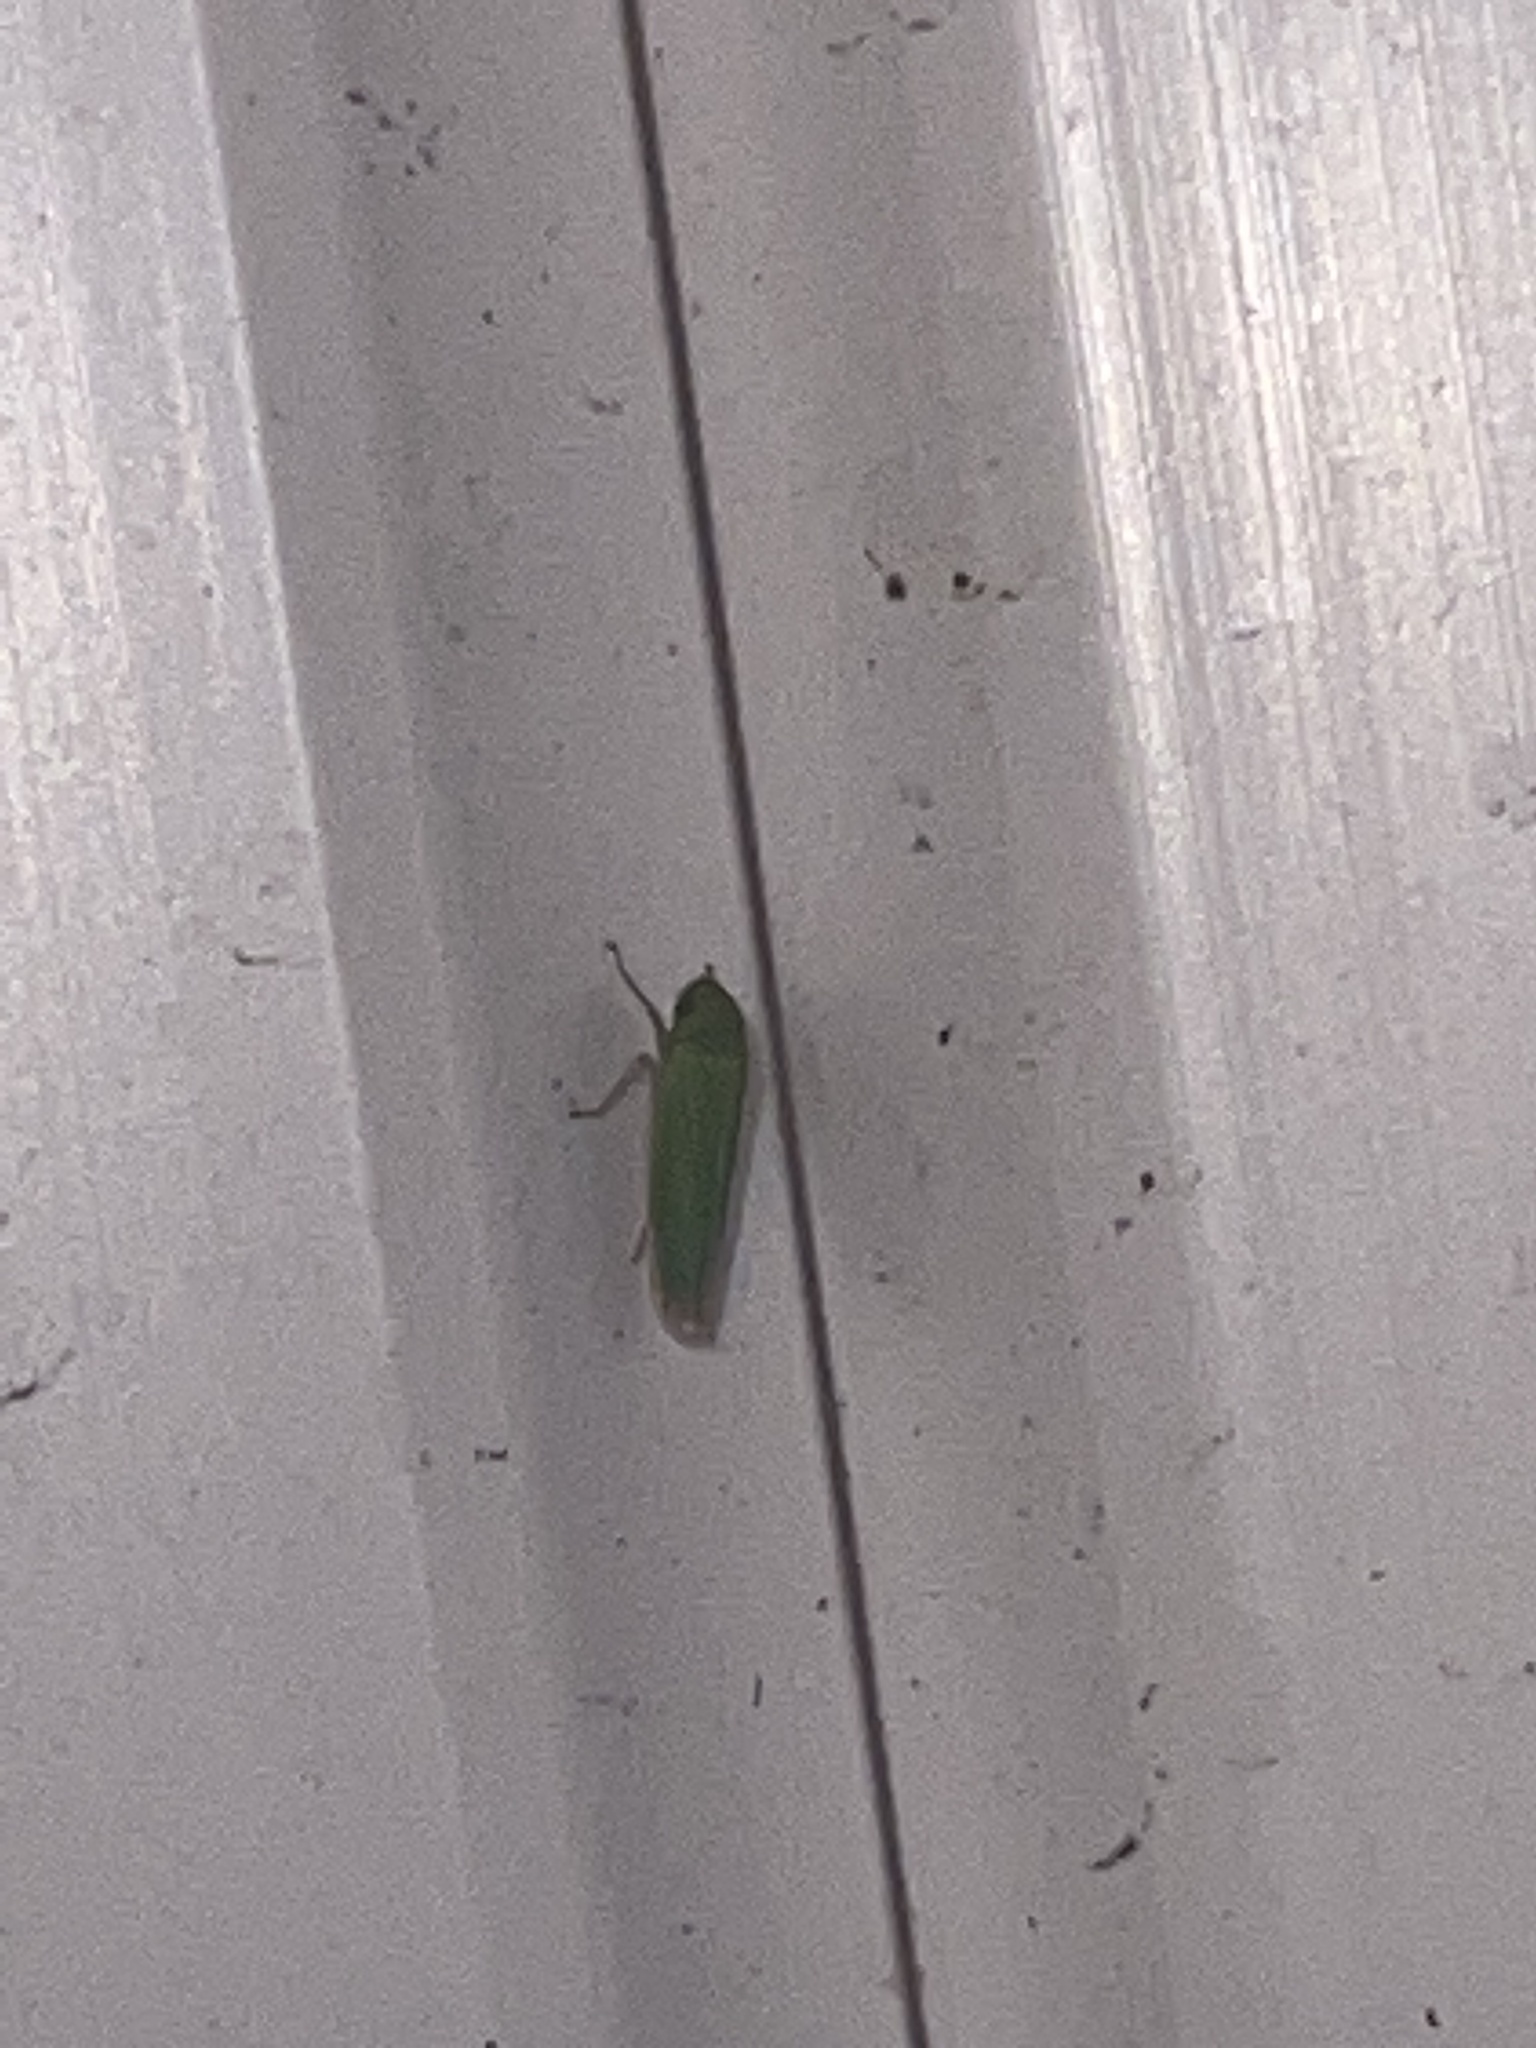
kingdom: Animalia
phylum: Arthropoda
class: Insecta
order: Hemiptera
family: Cicadellidae
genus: Hortensia
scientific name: Hortensia similis
